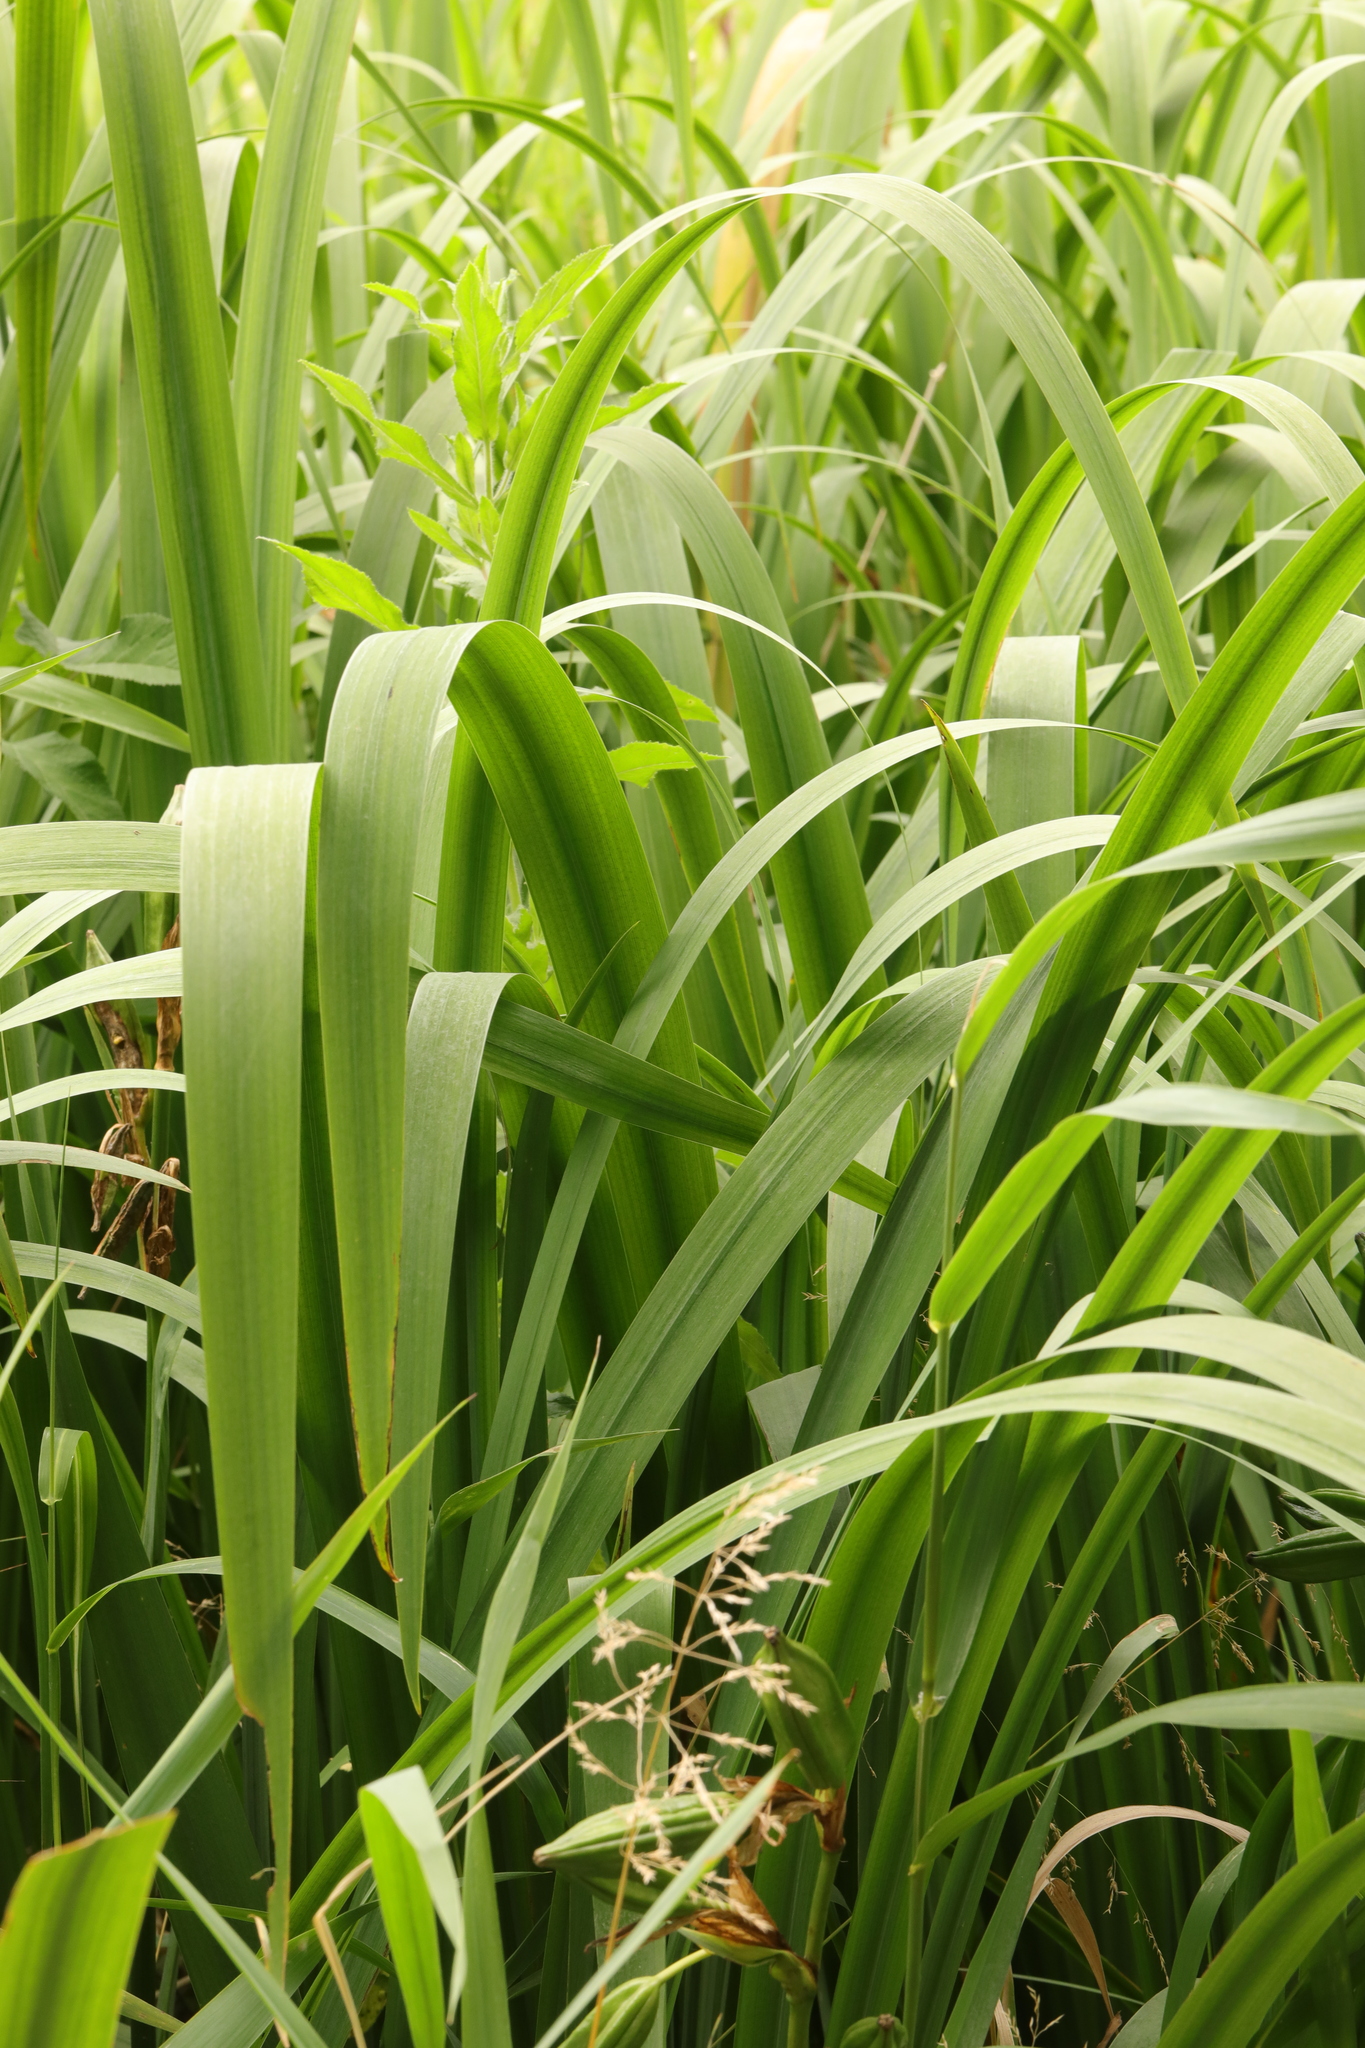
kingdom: Plantae
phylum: Tracheophyta
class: Liliopsida
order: Asparagales
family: Iridaceae
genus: Iris
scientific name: Iris pseudacorus
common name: Yellow flag
